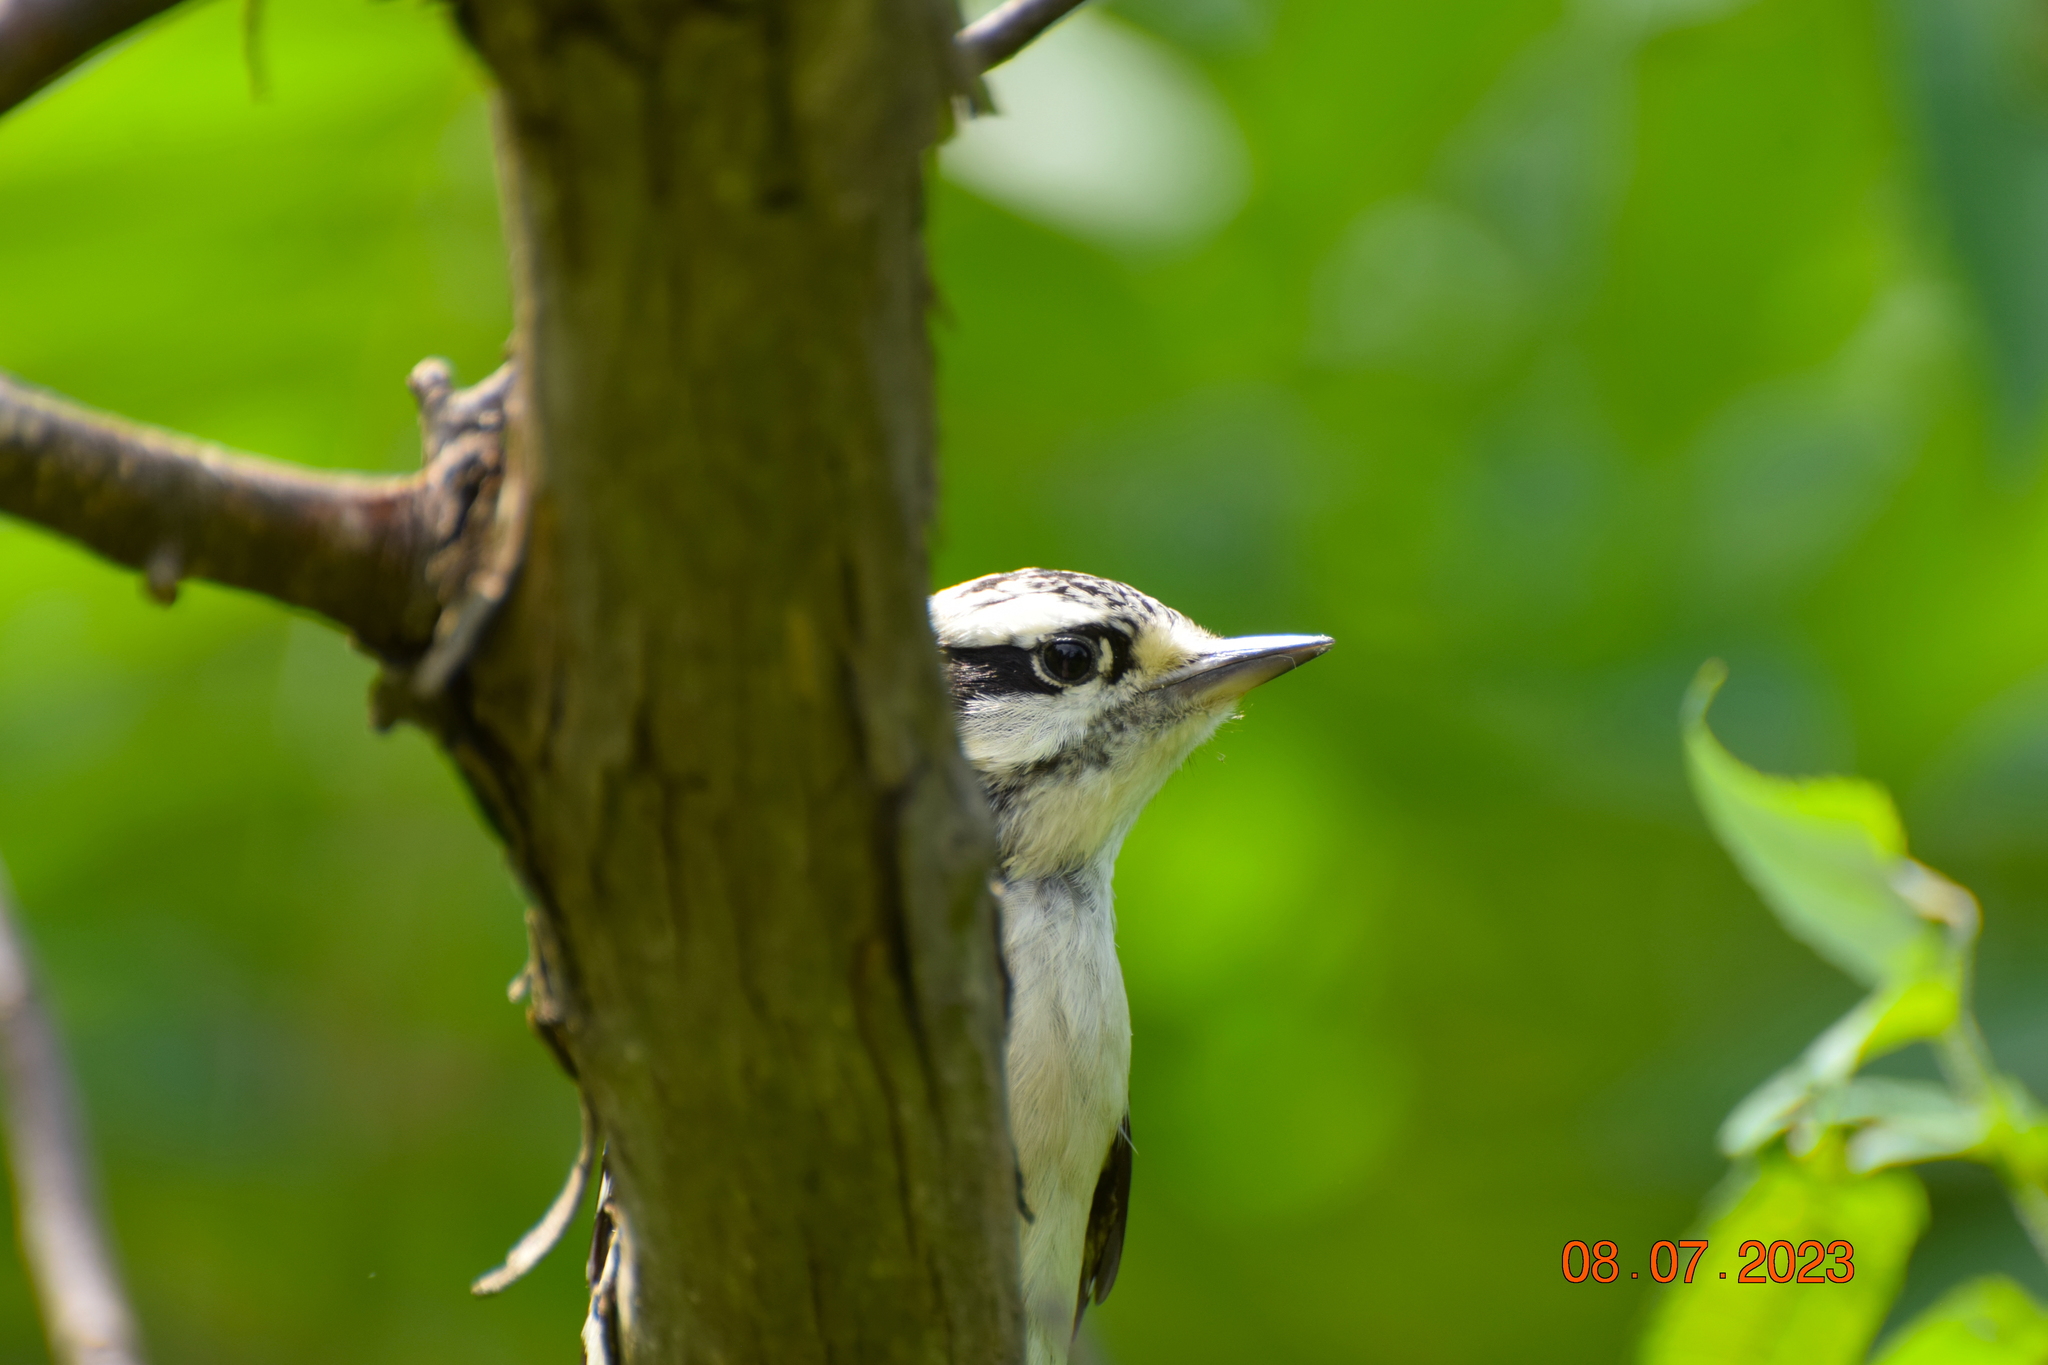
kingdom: Animalia
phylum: Chordata
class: Aves
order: Piciformes
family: Picidae
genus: Dryobates
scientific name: Dryobates pubescens
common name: Downy woodpecker
